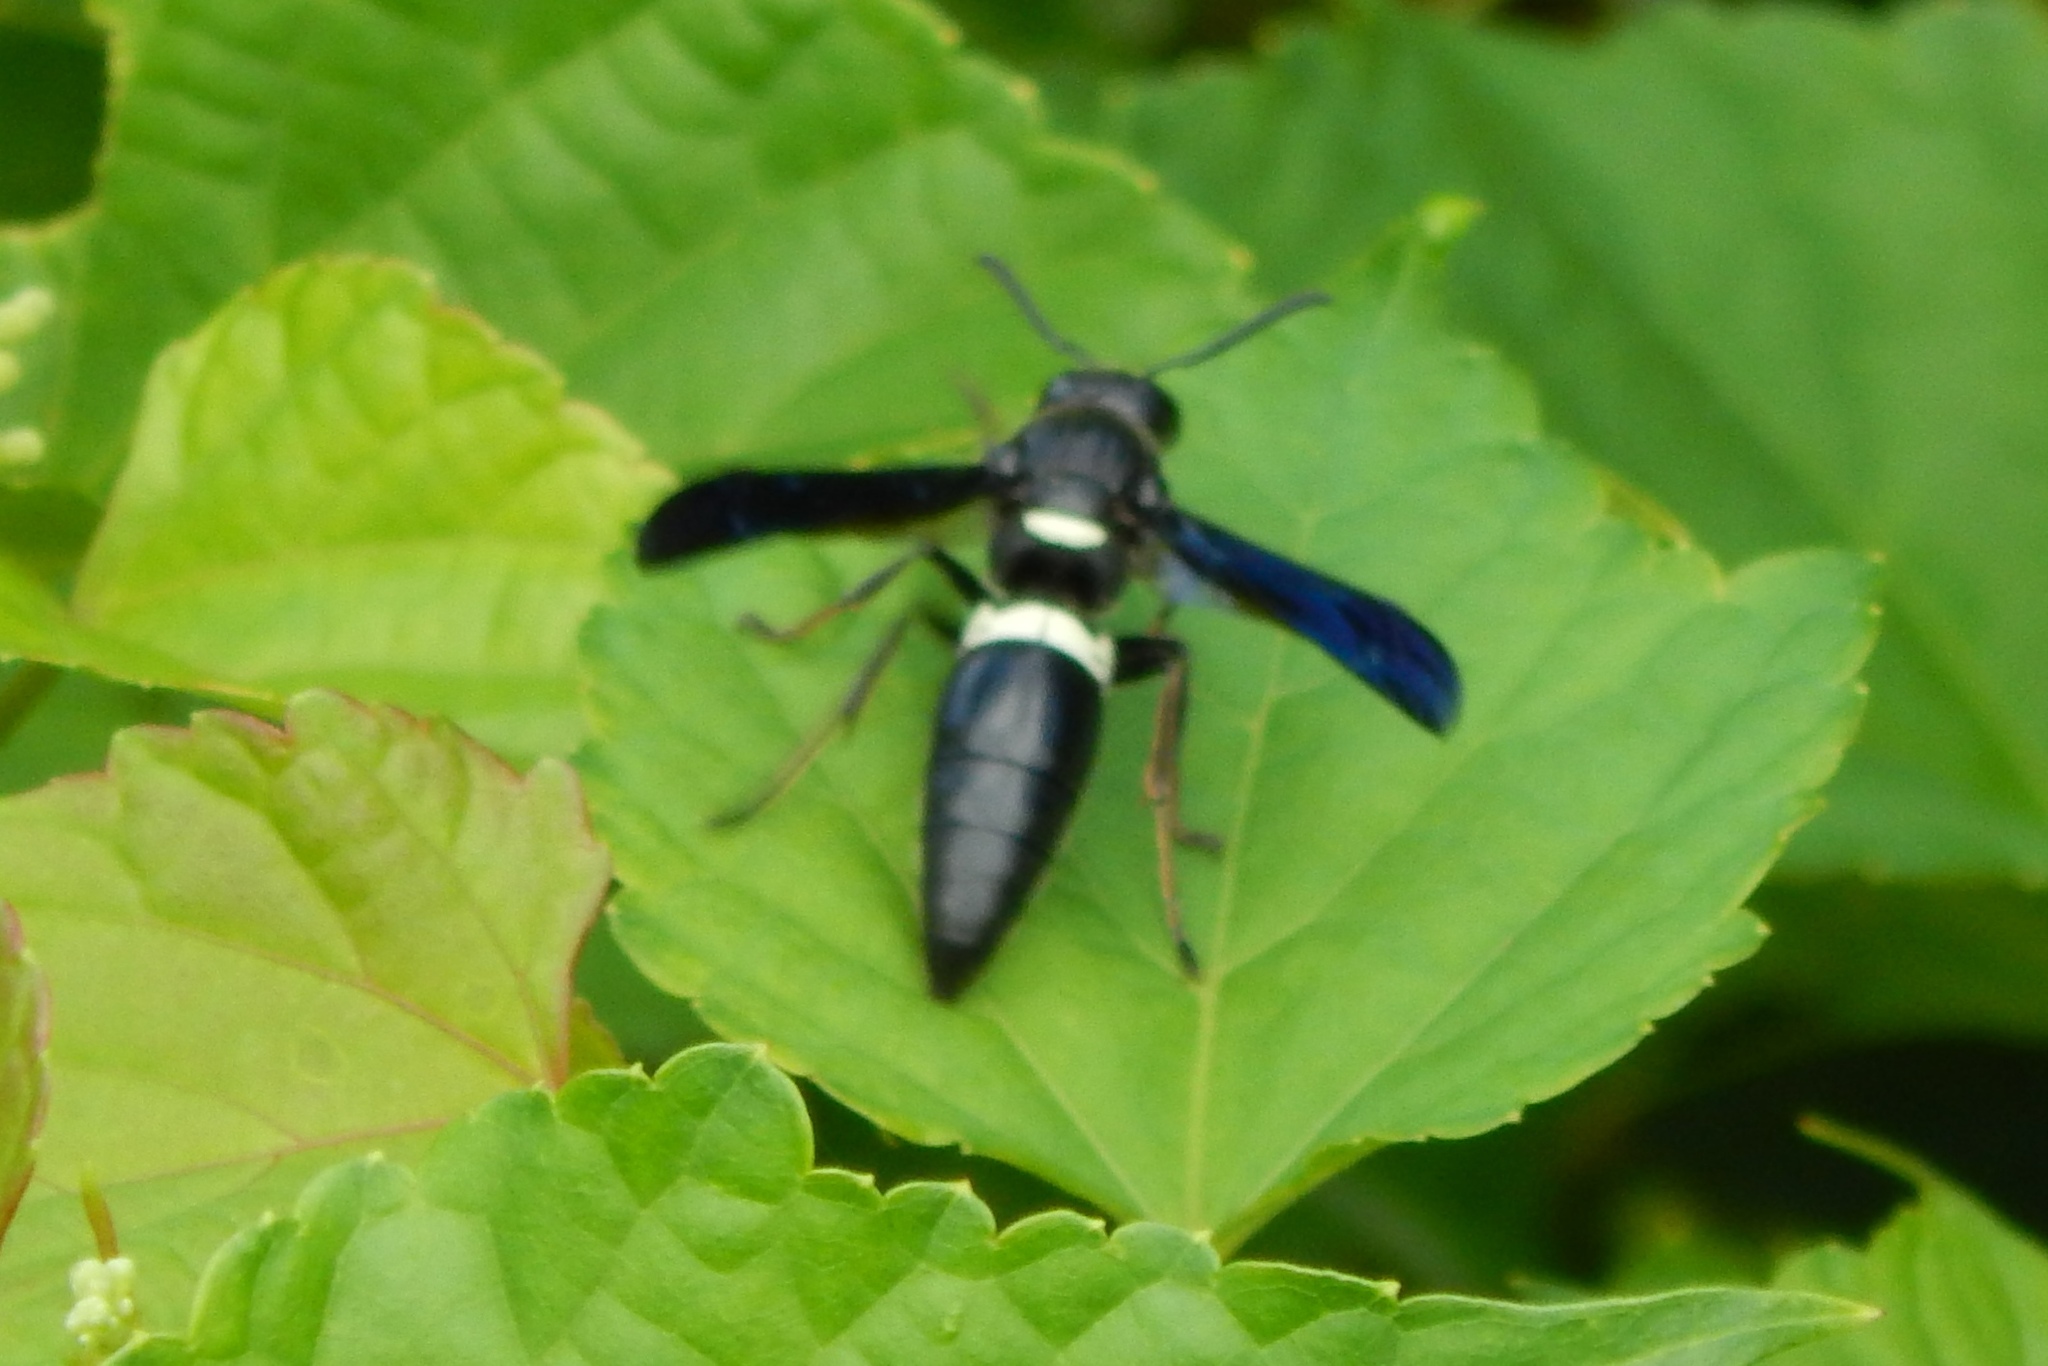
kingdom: Animalia
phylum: Arthropoda
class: Insecta
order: Hymenoptera
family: Eumenidae
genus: Monobia
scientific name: Monobia quadridens
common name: Four-toothed mason wasp
